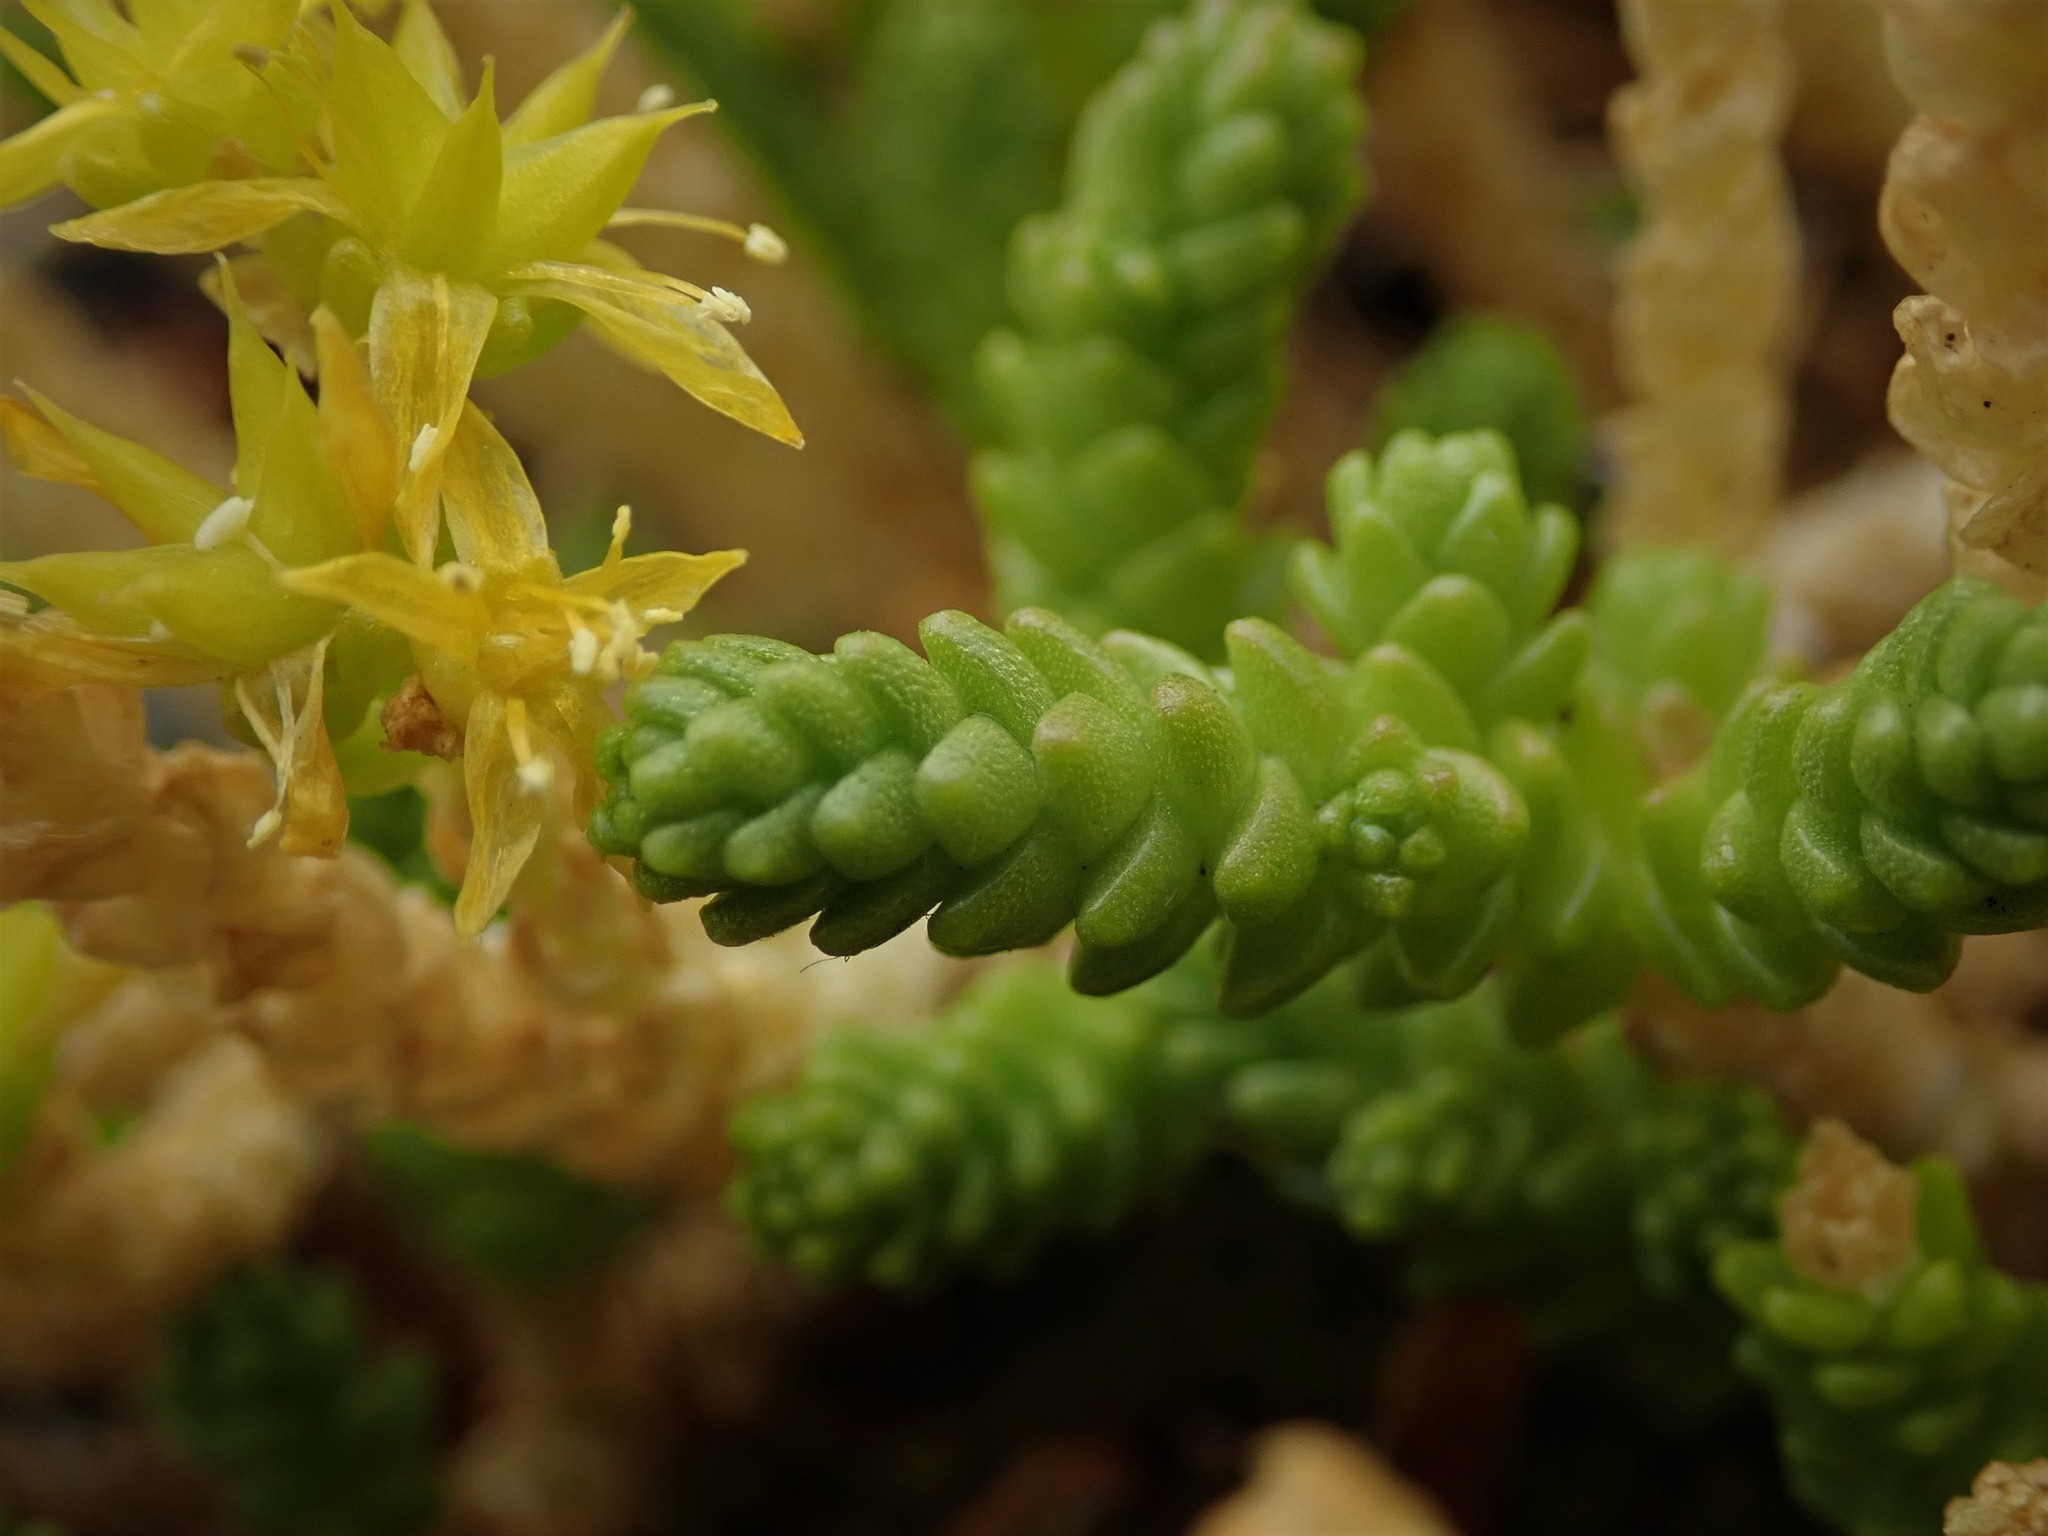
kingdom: Plantae
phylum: Tracheophyta
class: Magnoliopsida
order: Saxifragales
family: Crassulaceae
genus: Sedum
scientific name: Sedum acre
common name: Biting stonecrop
